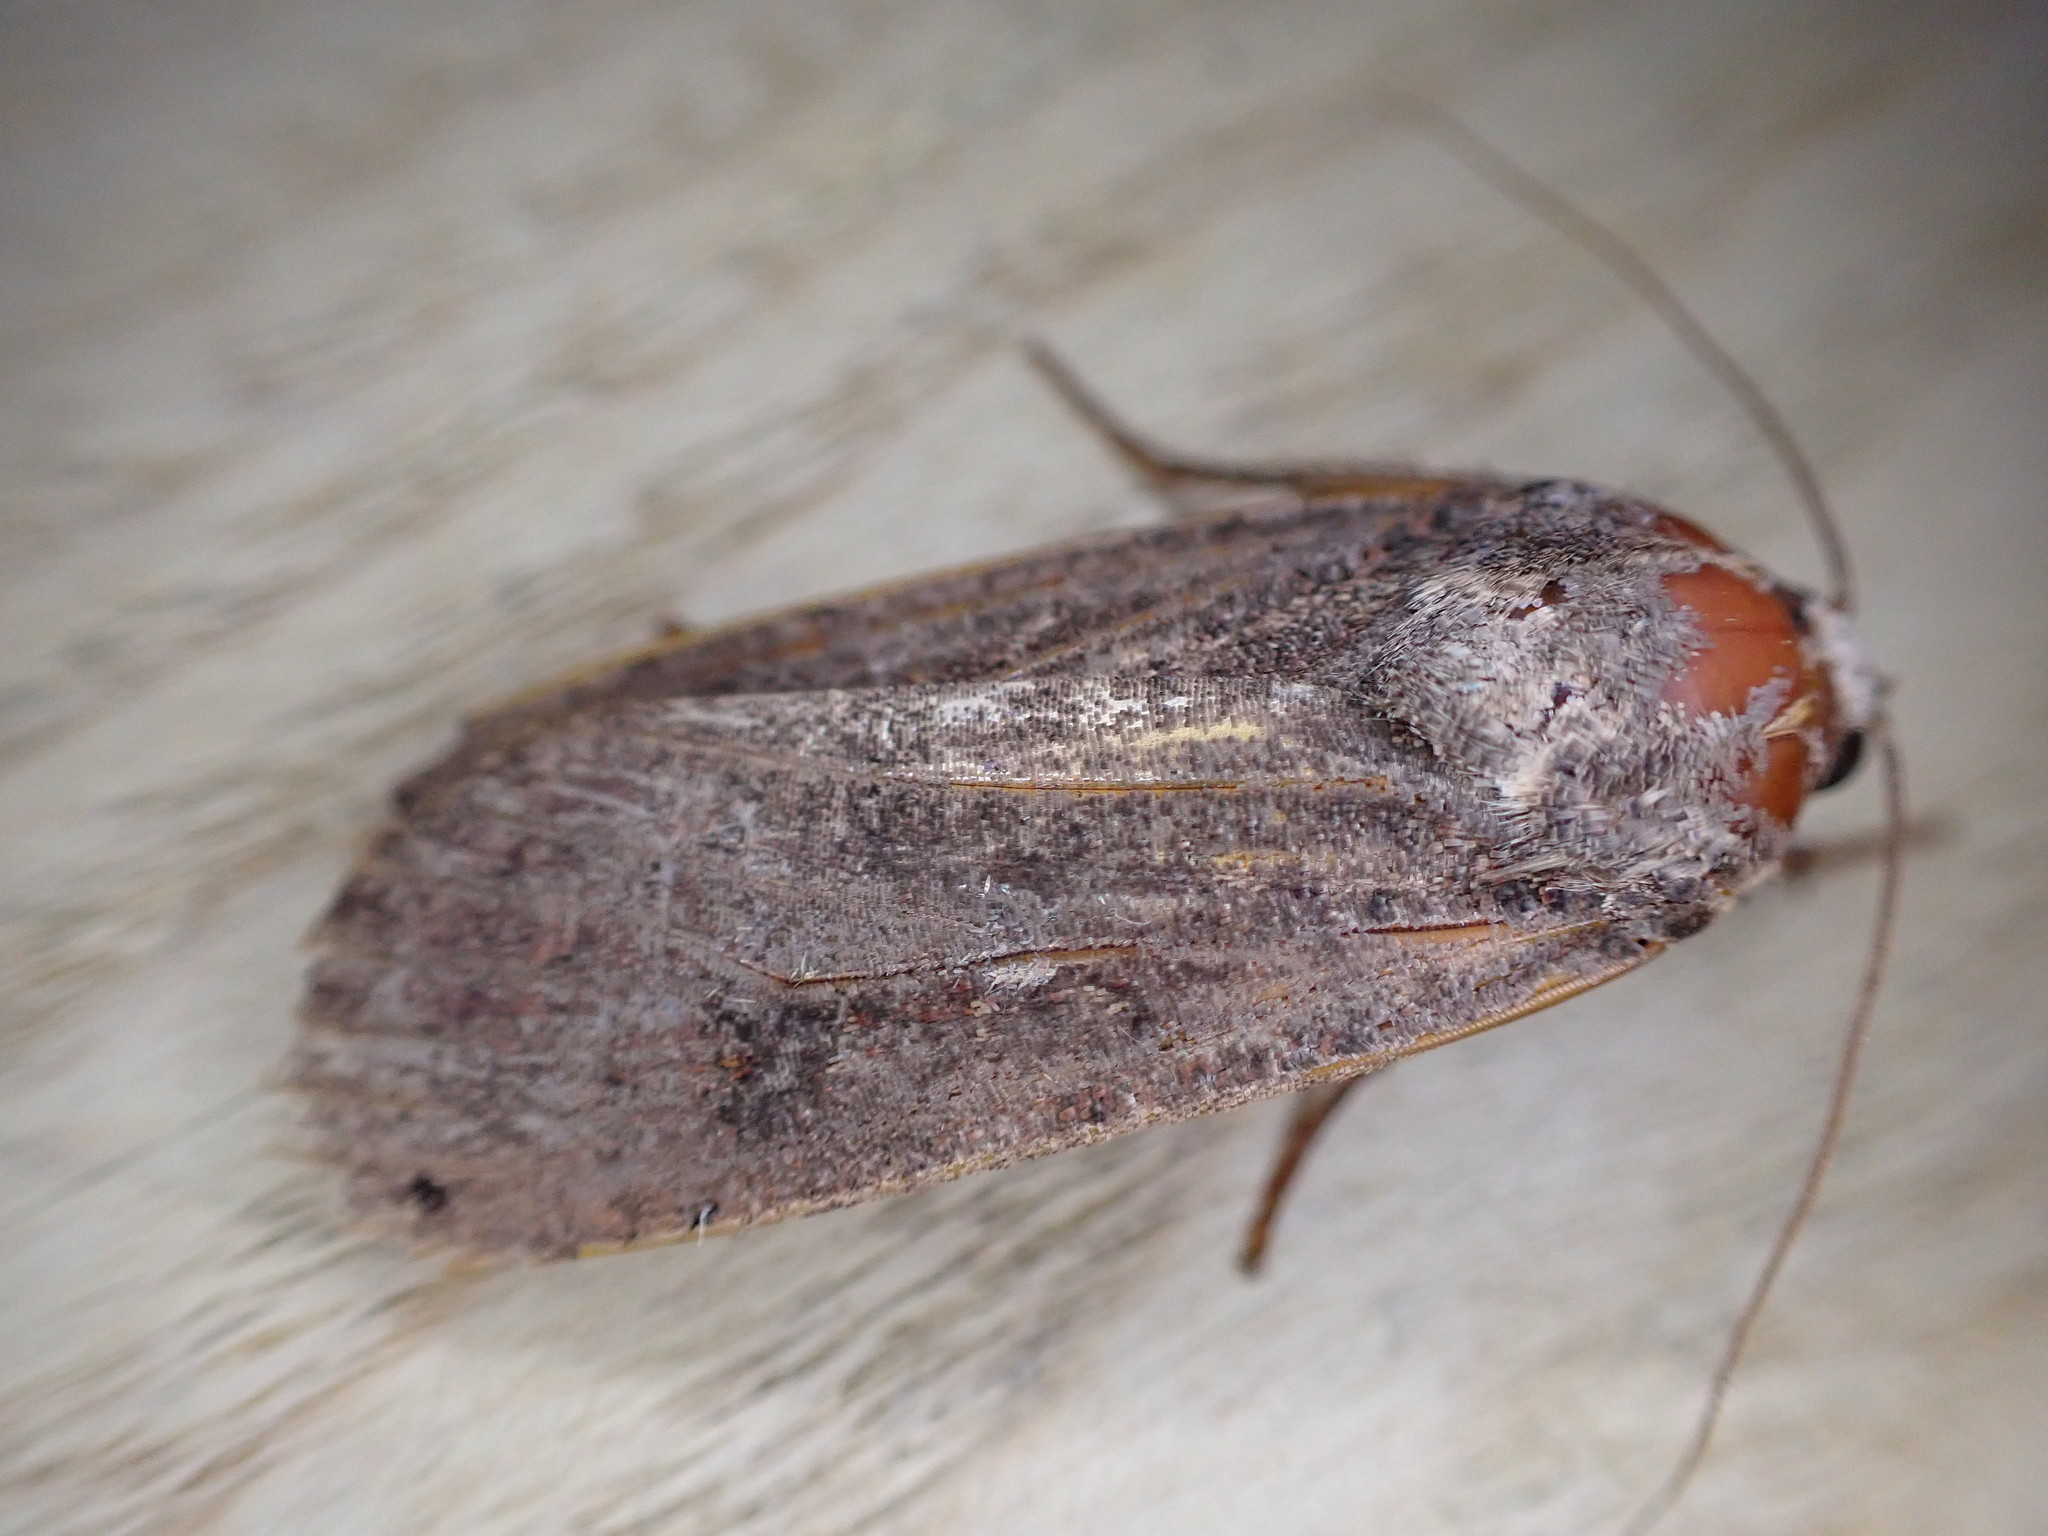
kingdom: Animalia
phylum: Arthropoda
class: Insecta
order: Lepidoptera
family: Noctuidae
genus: Noctua
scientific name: Noctua pronuba
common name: Large yellow underwing
